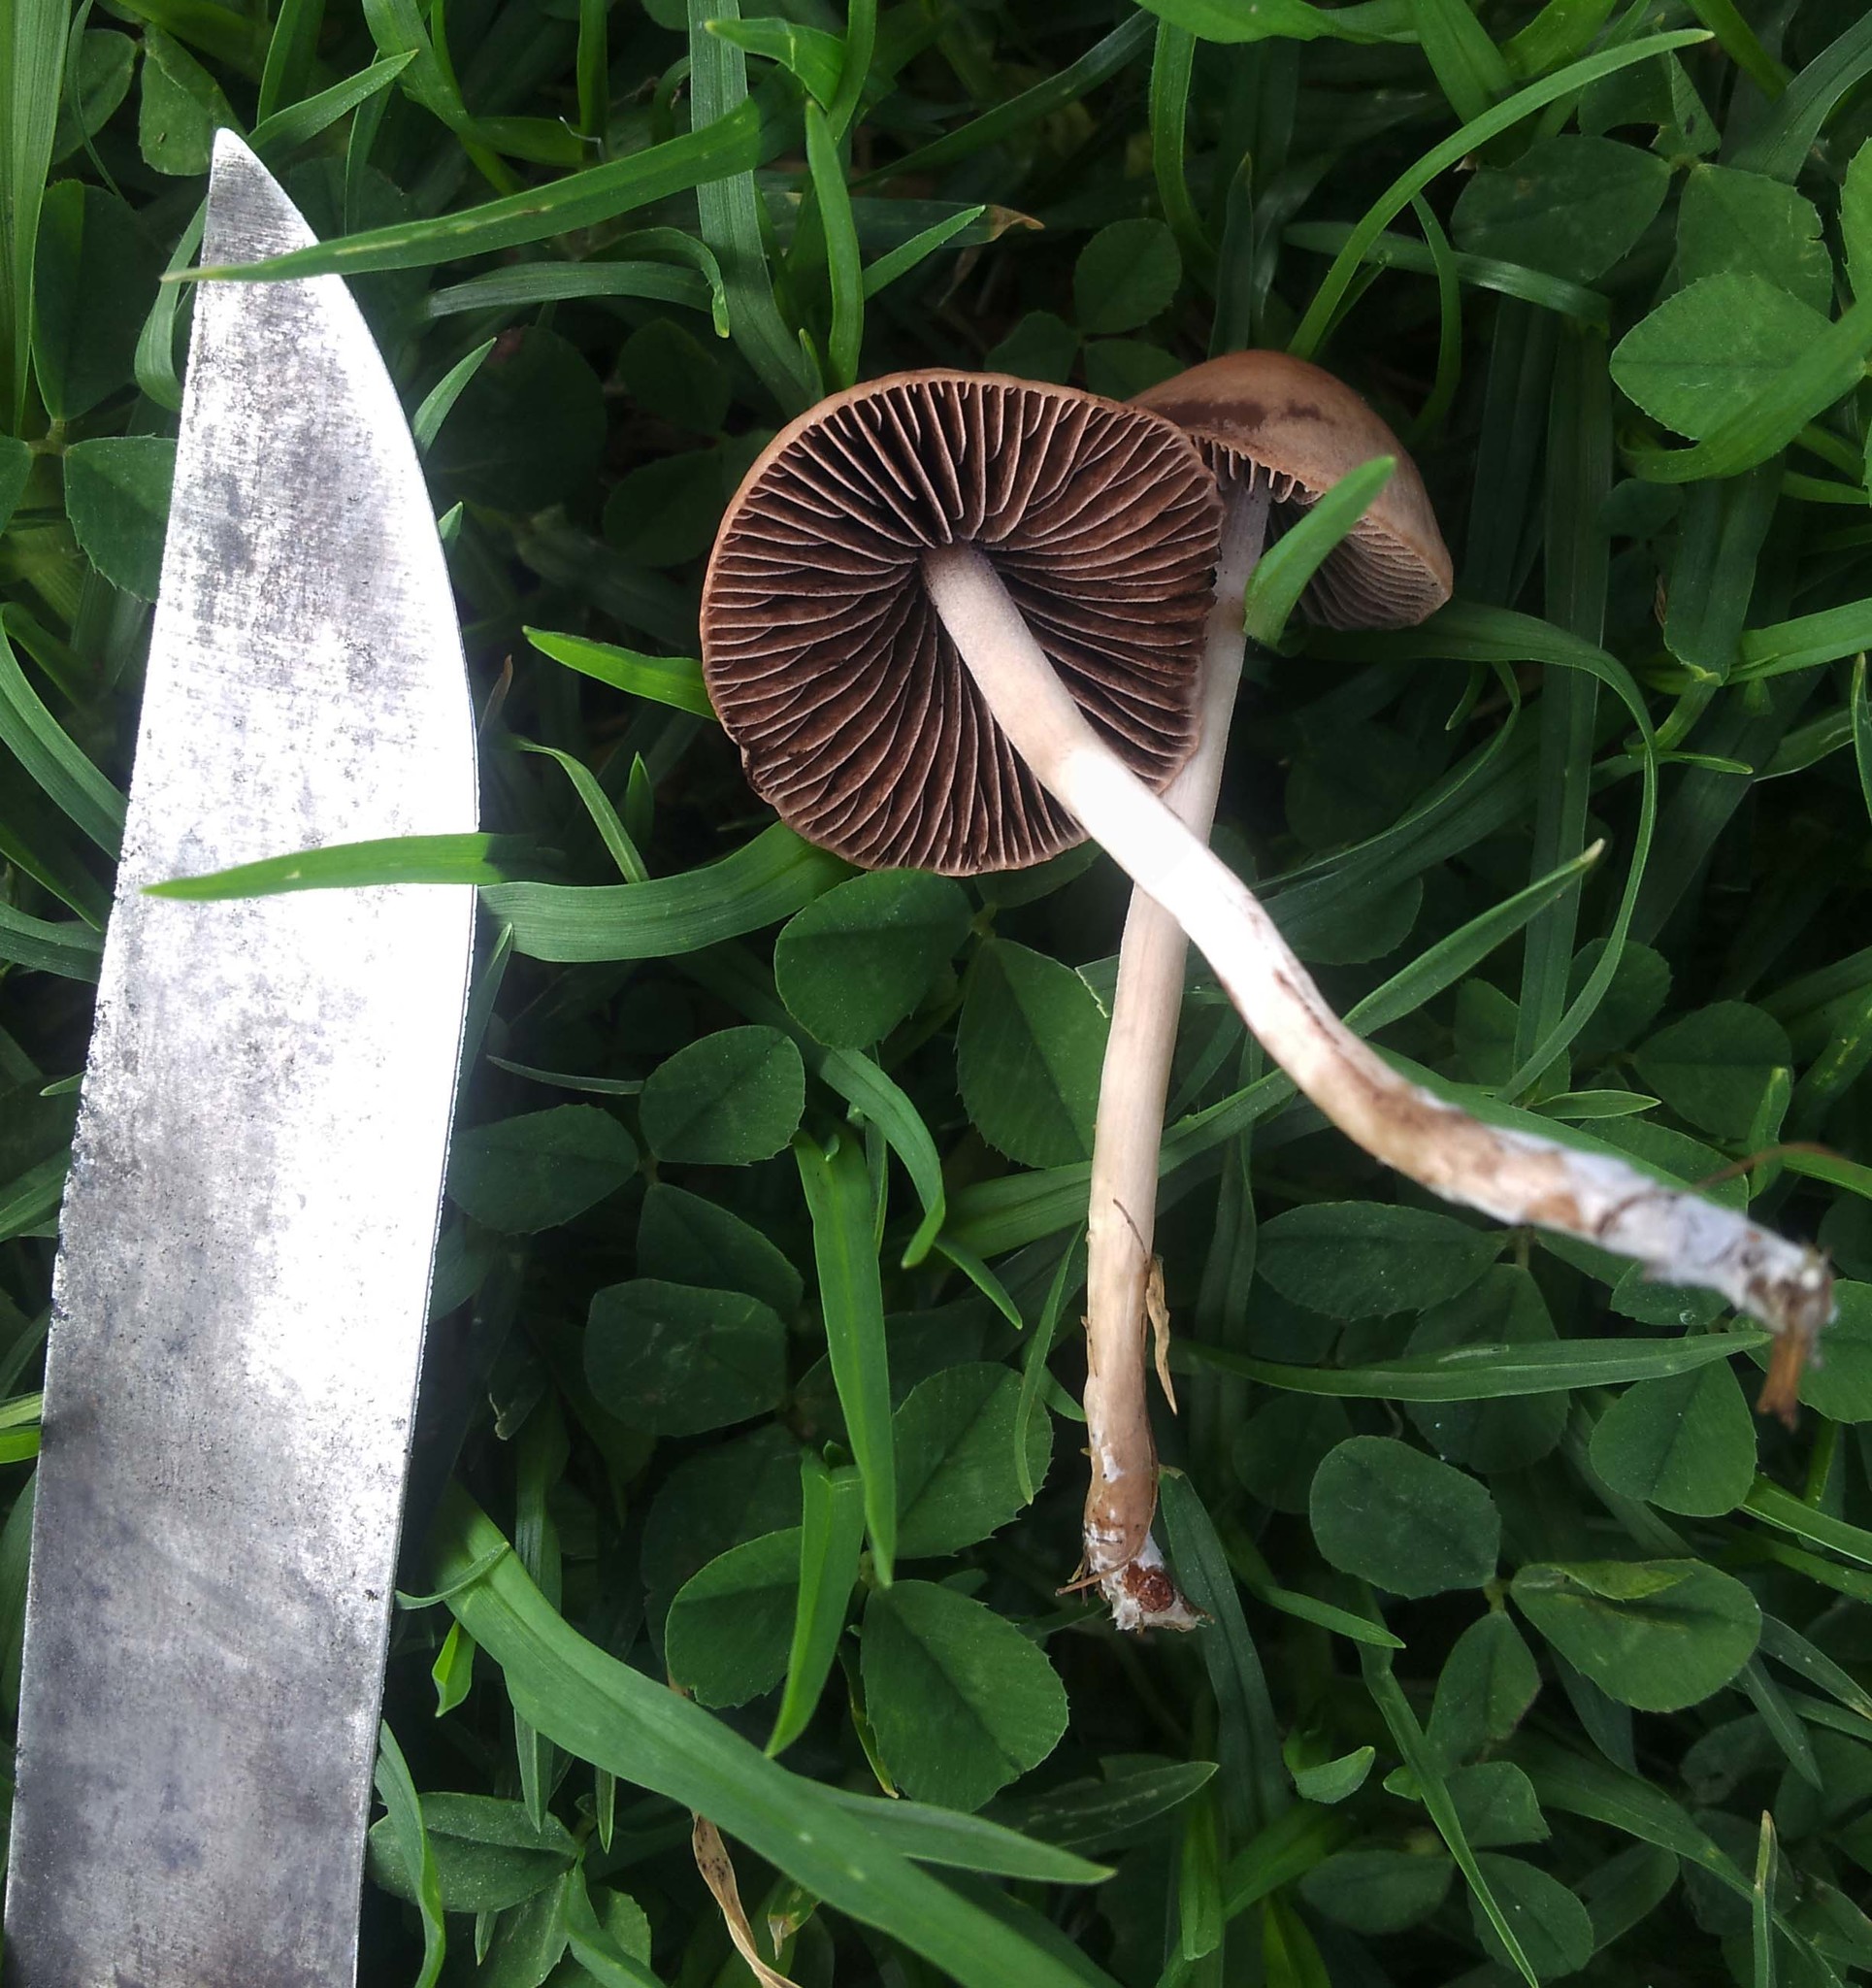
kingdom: Fungi
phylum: Basidiomycota
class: Agaricomycetes
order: Agaricales
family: Bolbitiaceae
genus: Panaeolina
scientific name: Panaeolina foenisecii
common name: Brown hay cap
